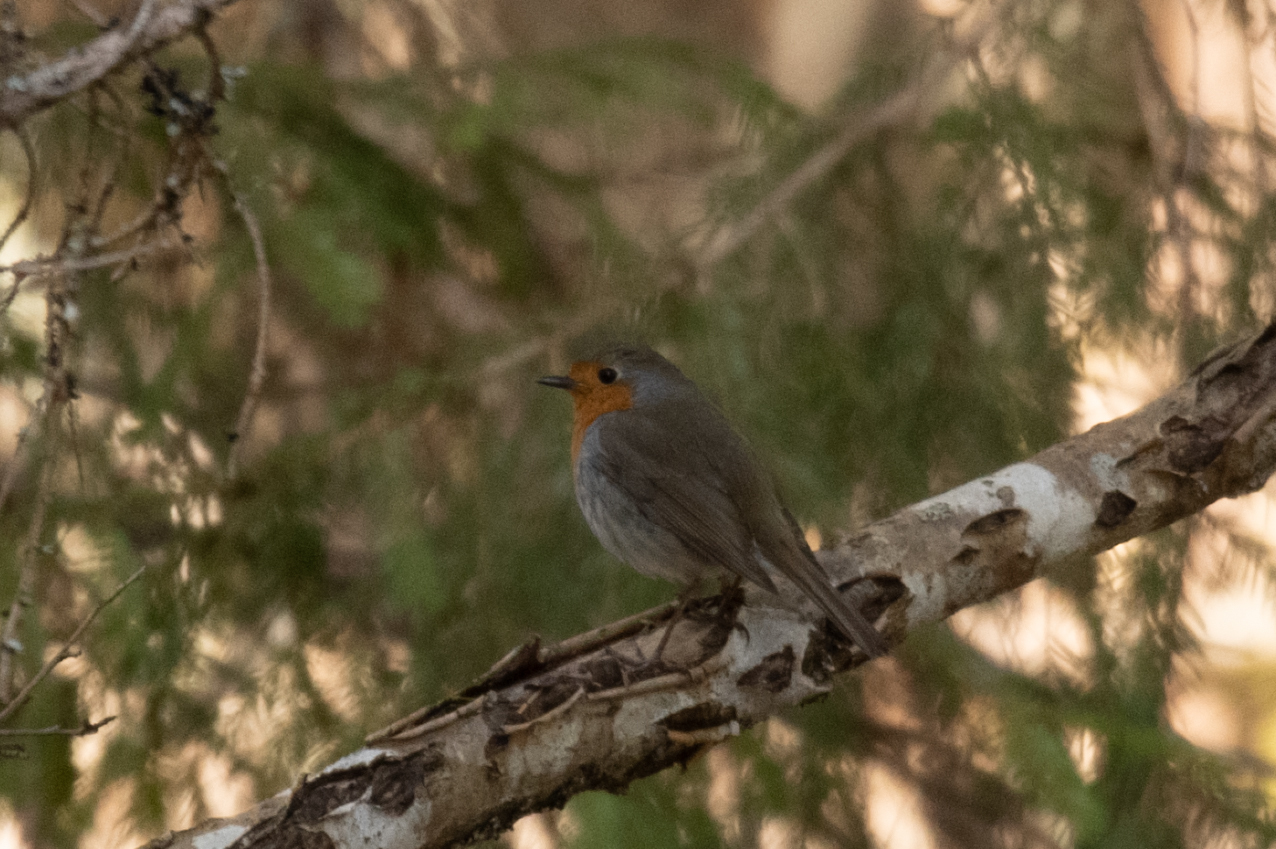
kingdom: Animalia
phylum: Chordata
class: Aves
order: Passeriformes
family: Muscicapidae
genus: Erithacus
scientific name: Erithacus rubecula
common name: European robin
